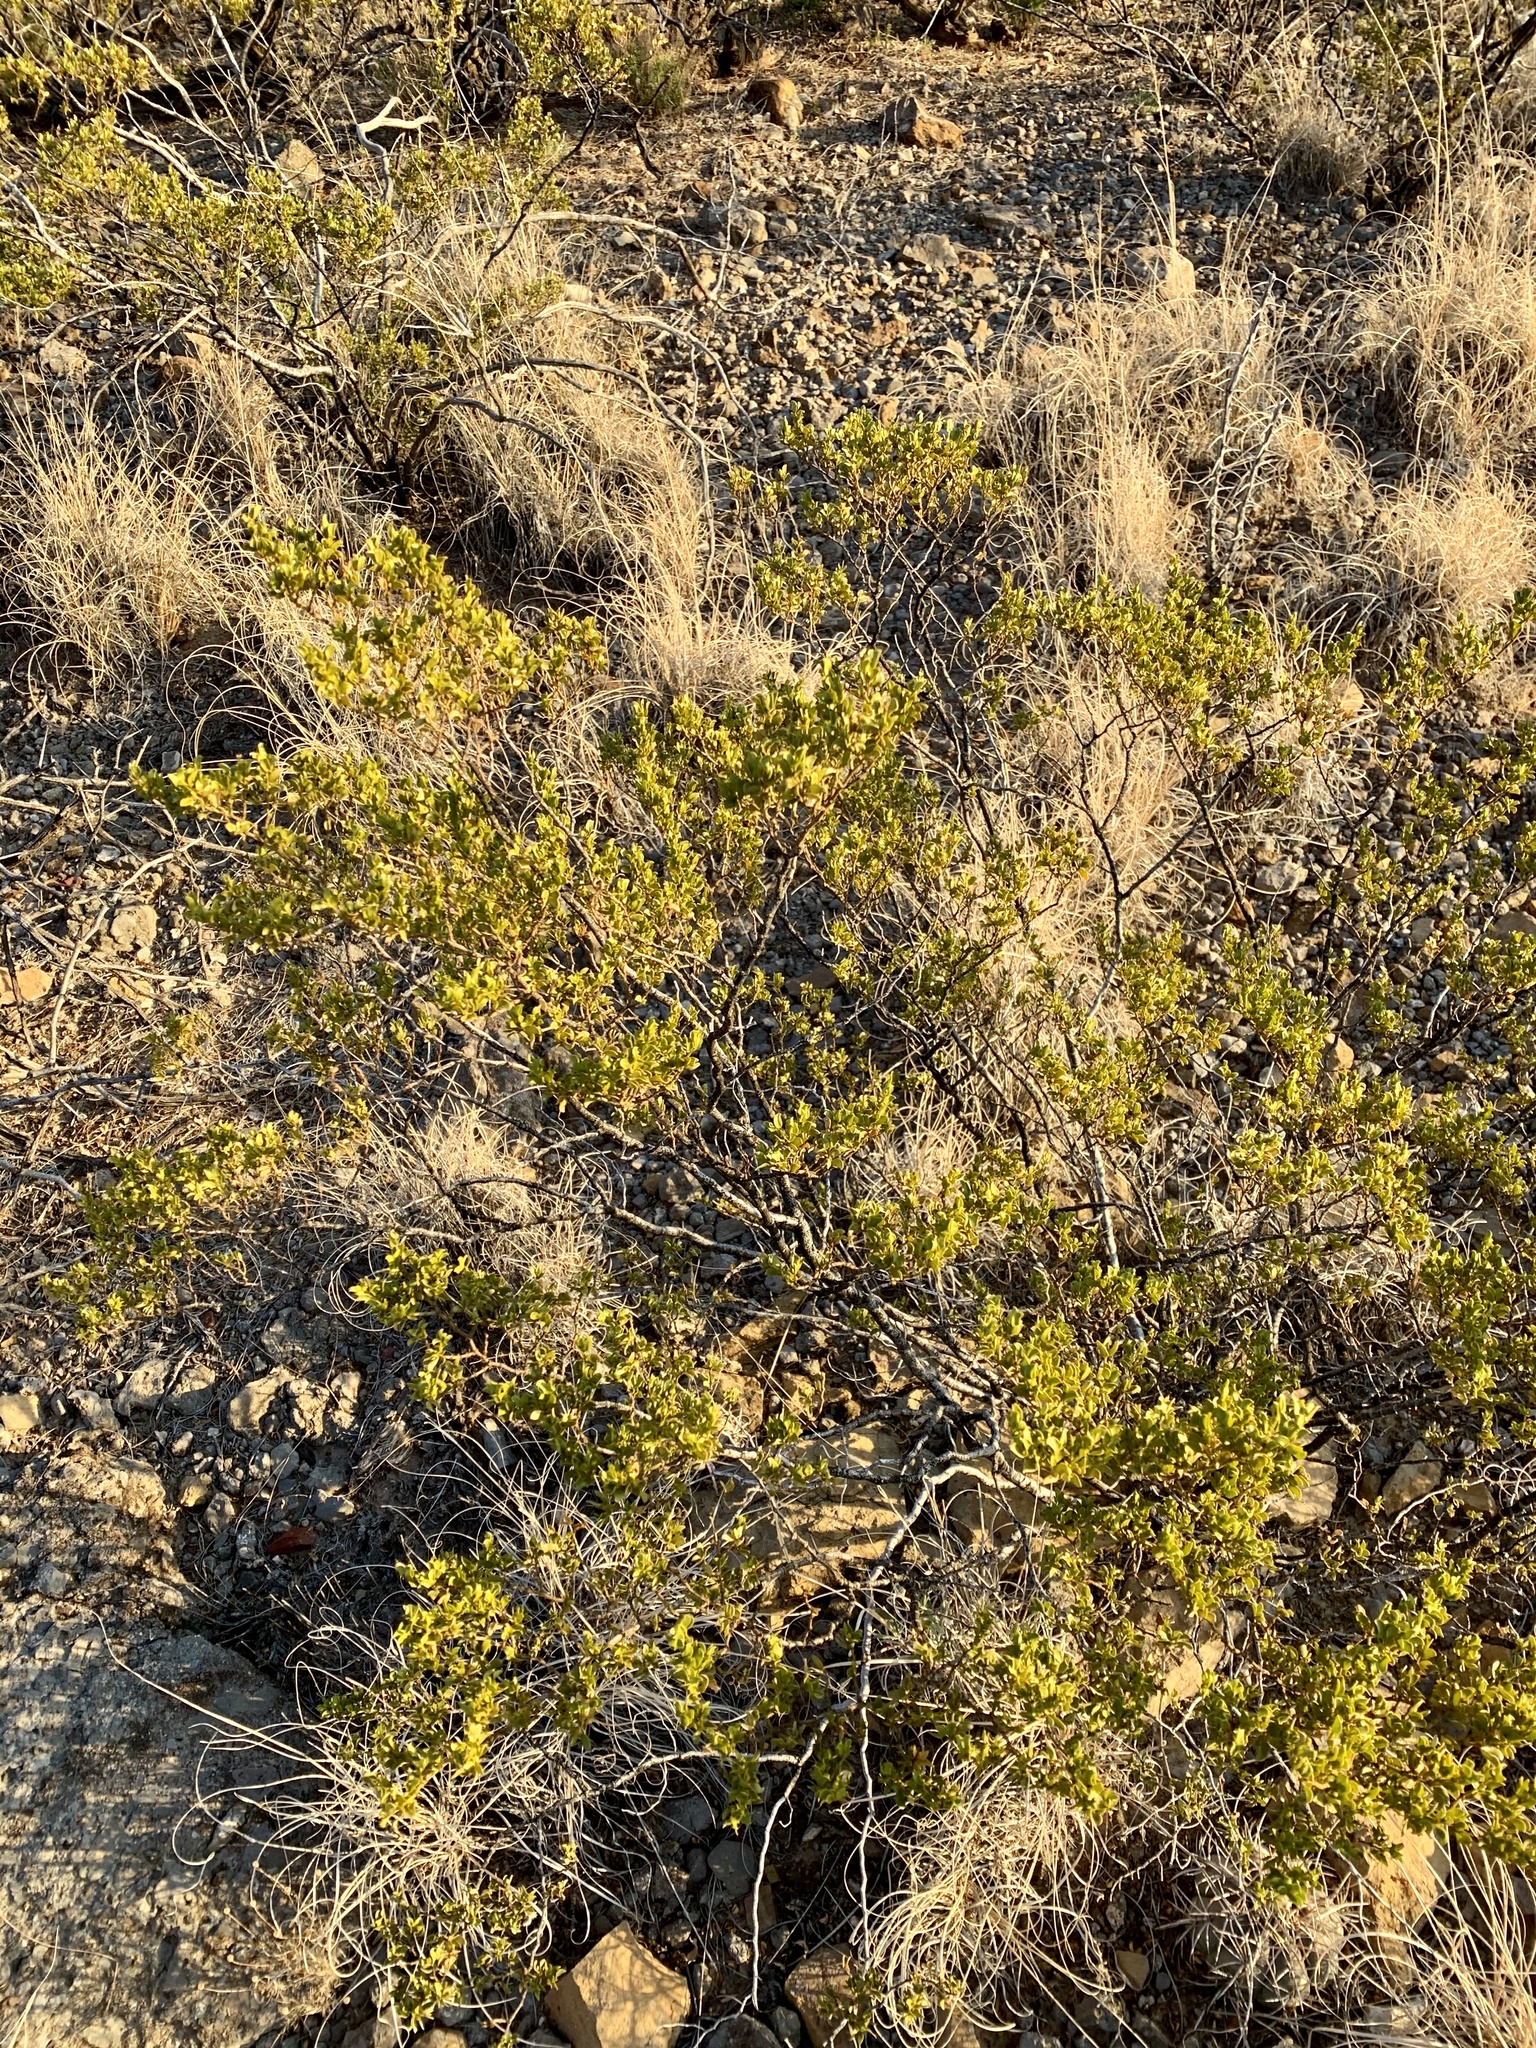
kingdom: Plantae
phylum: Tracheophyta
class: Magnoliopsida
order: Zygophyllales
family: Zygophyllaceae
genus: Larrea
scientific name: Larrea tridentata
